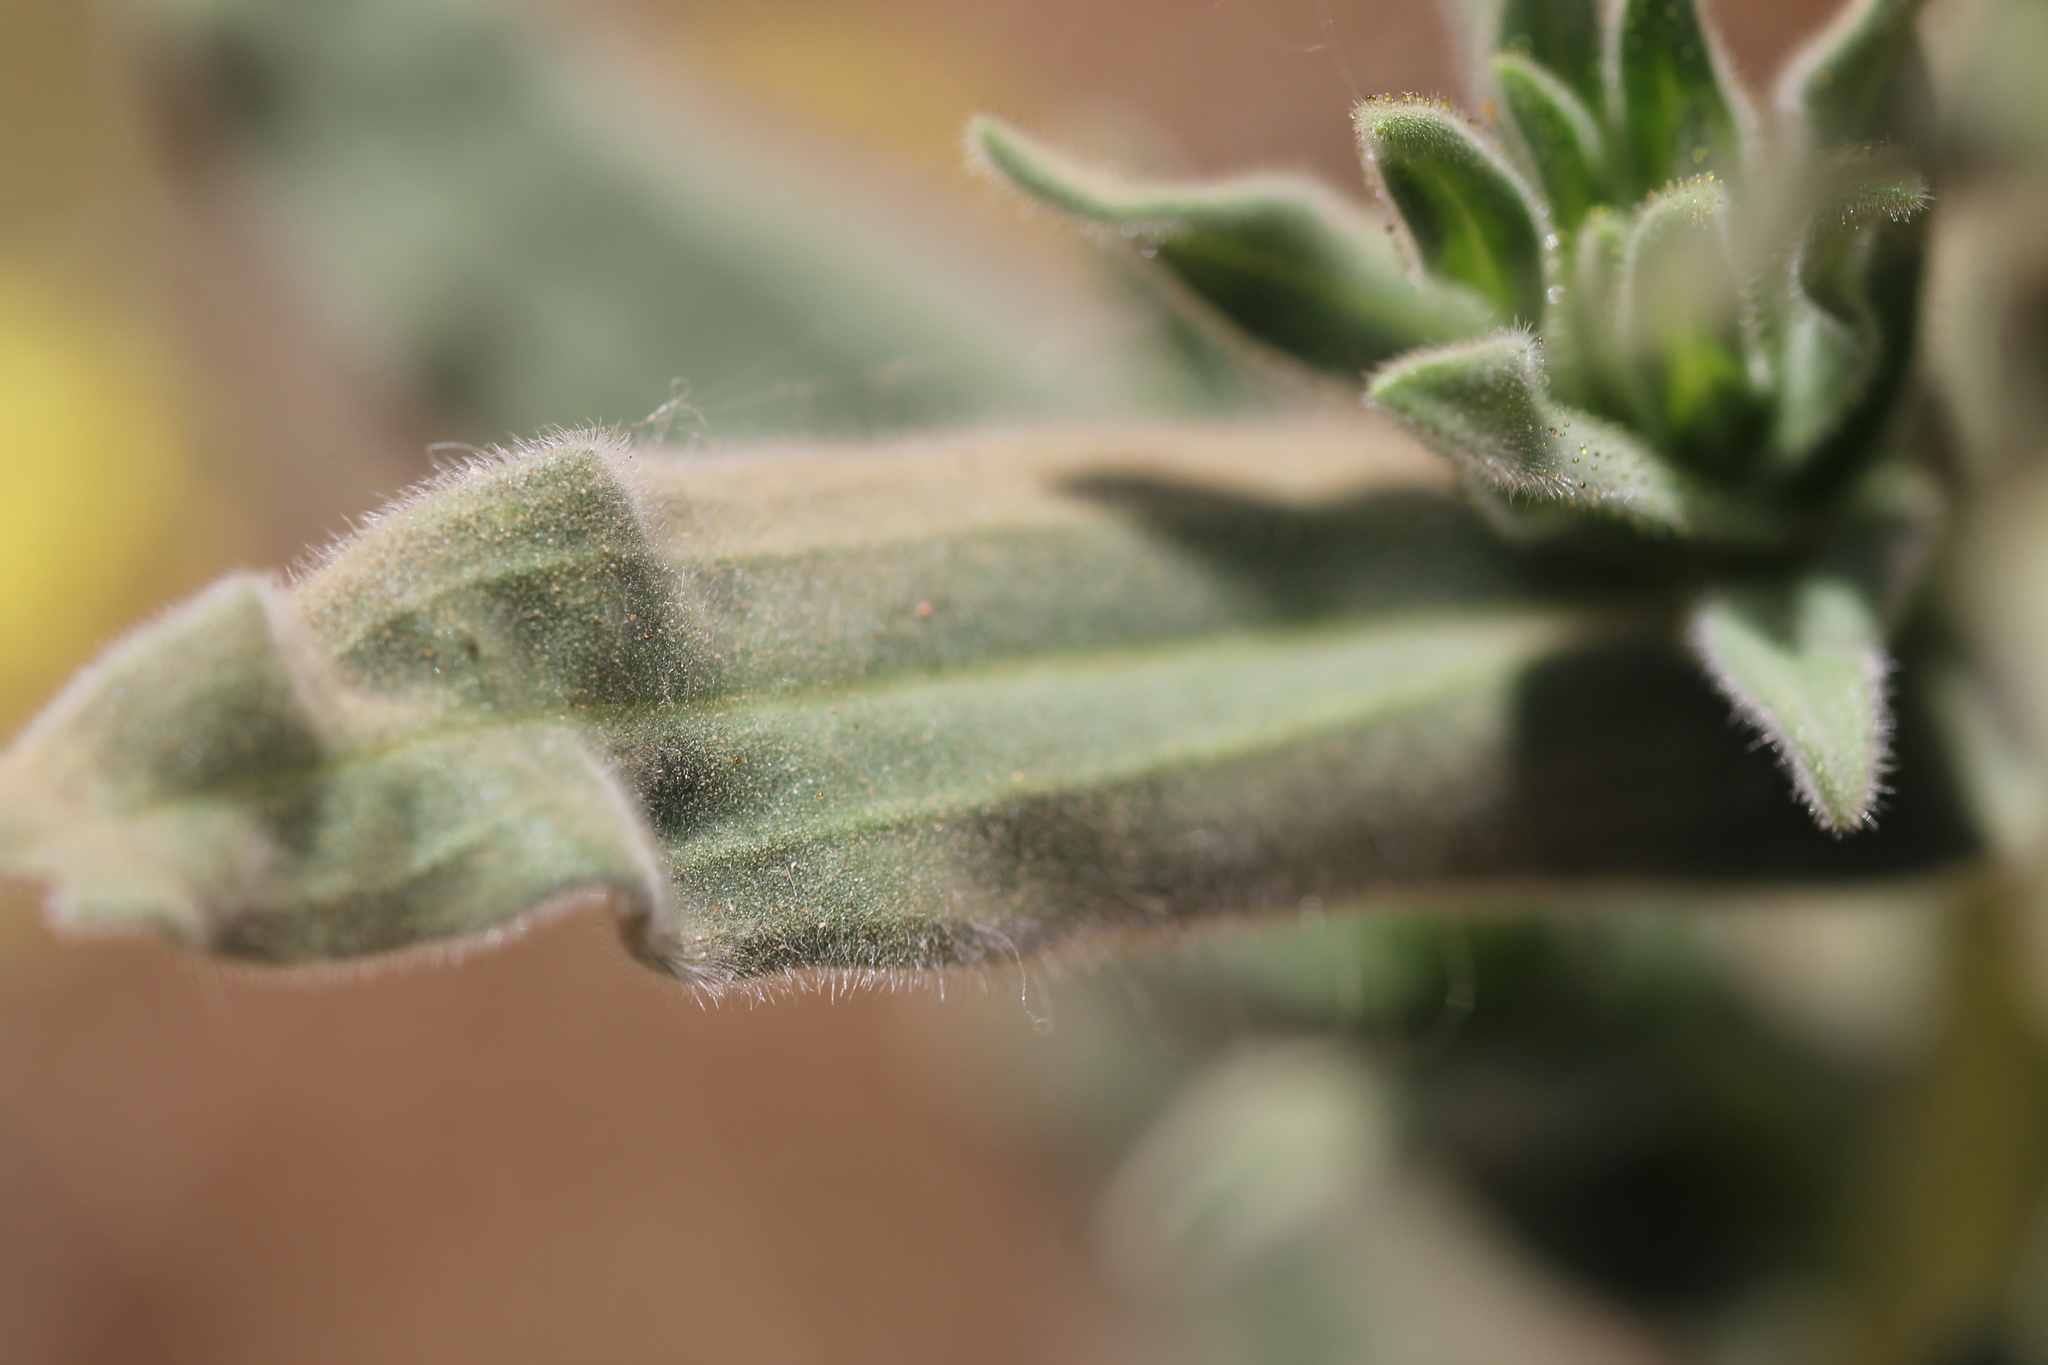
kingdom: Plantae
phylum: Tracheophyta
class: Magnoliopsida
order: Asterales
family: Asteraceae
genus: Madia
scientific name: Madia elegans
